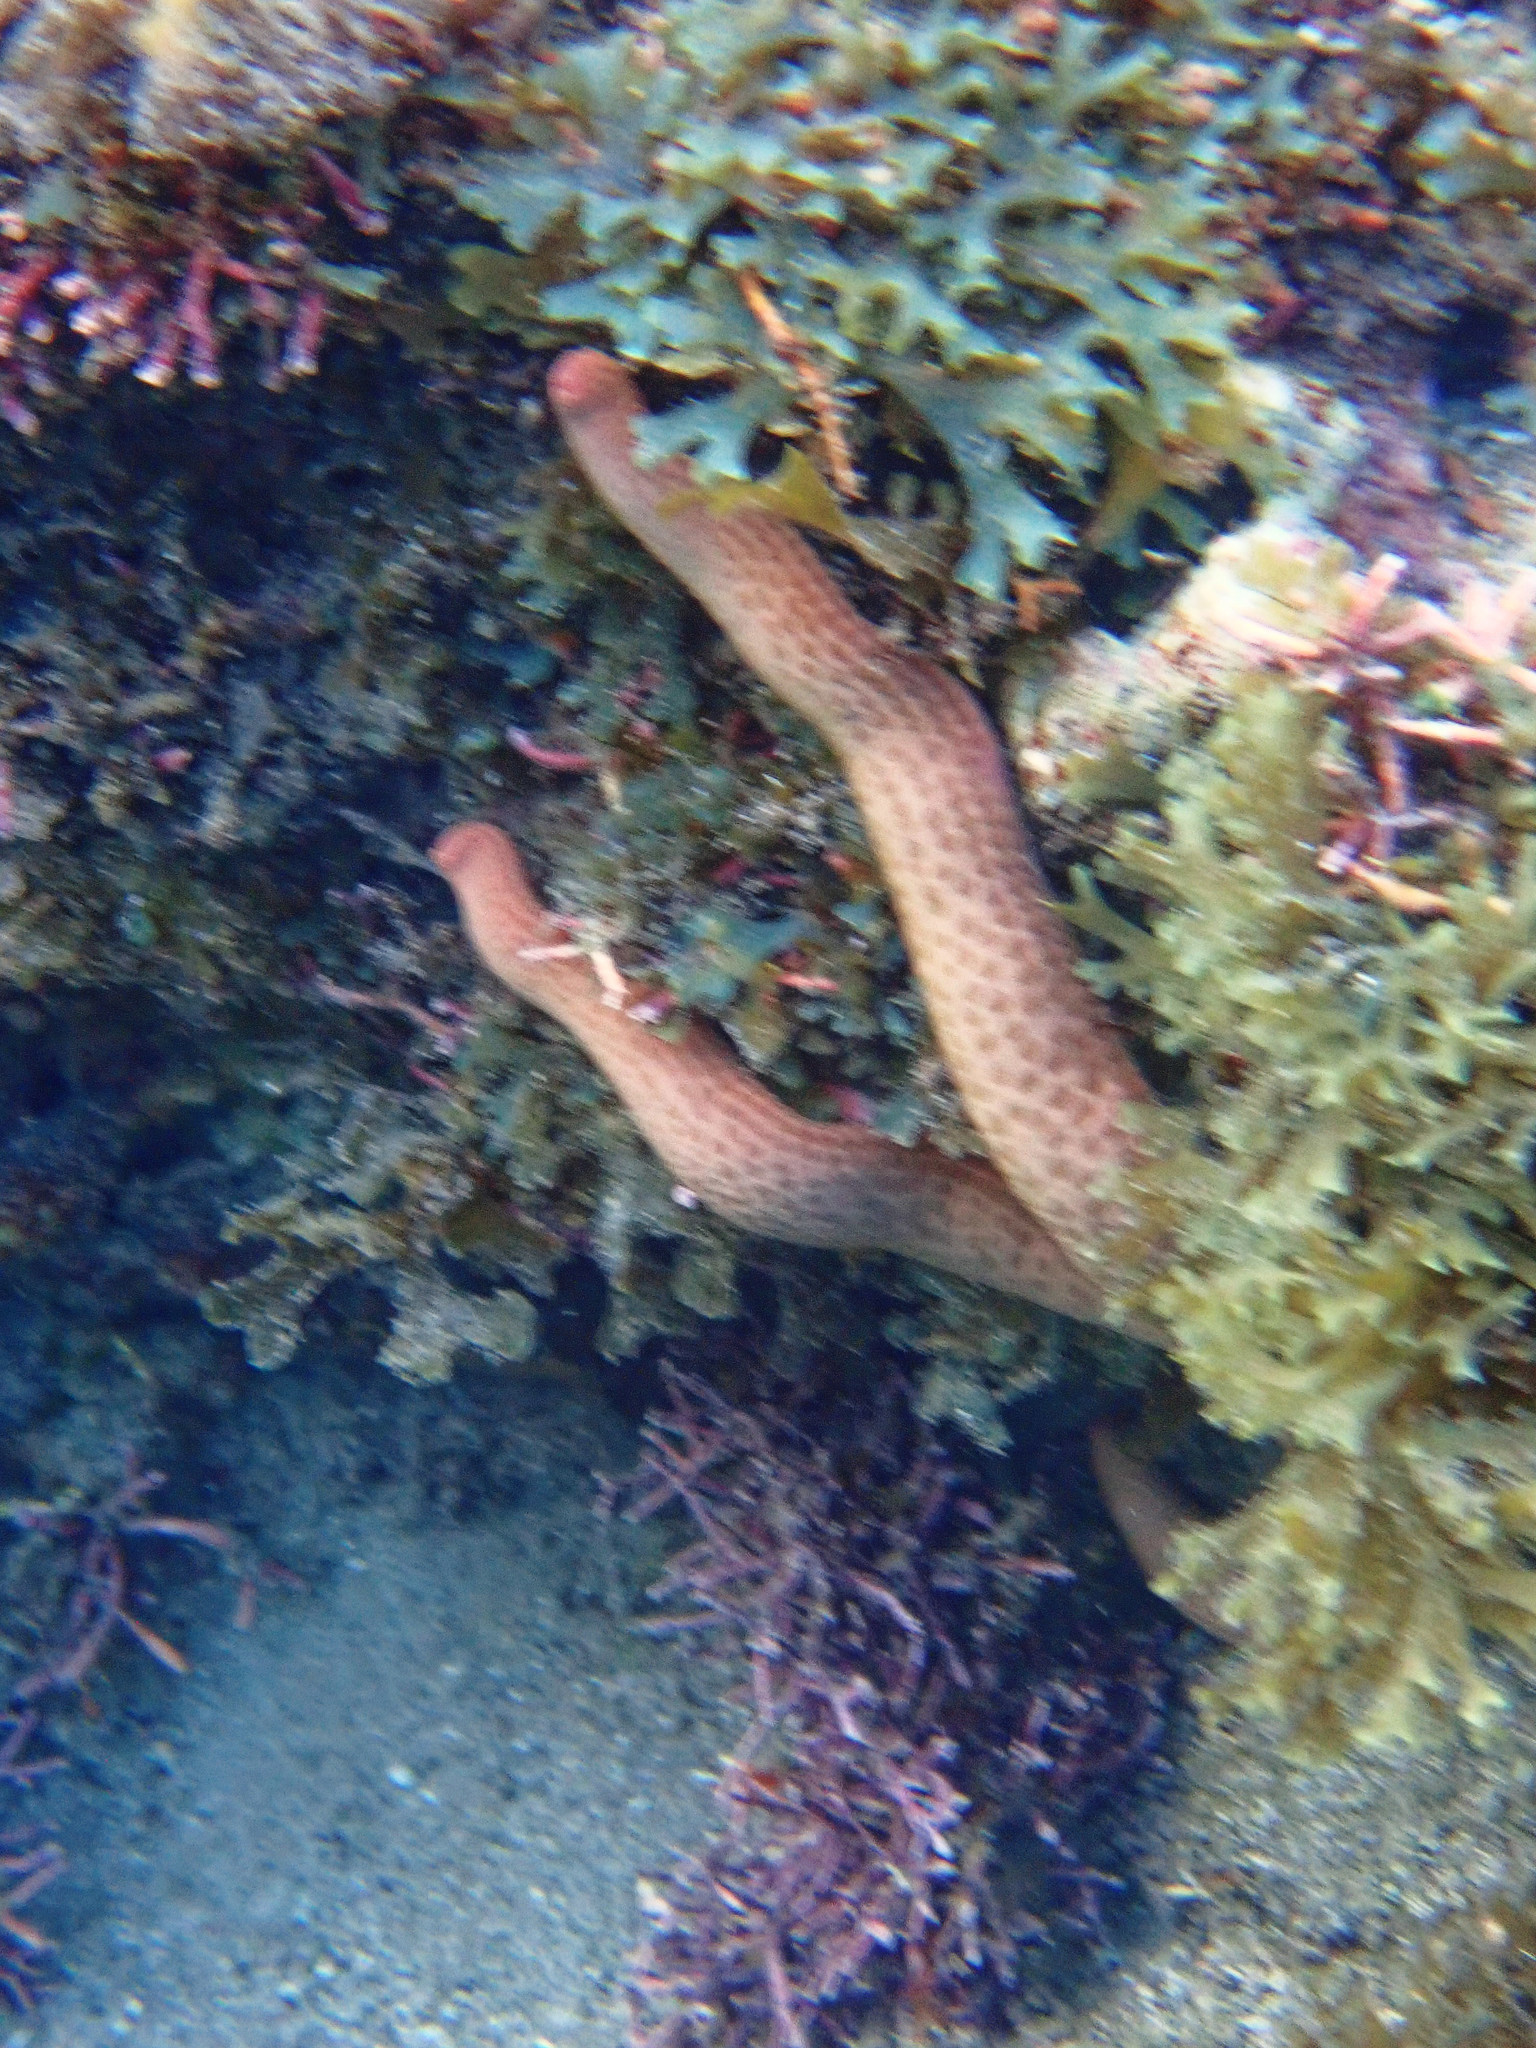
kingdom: Animalia
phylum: Echinodermata
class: Asteroidea
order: Valvatida
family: Ophidiasteridae
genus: Linckia
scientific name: Linckia guildingi
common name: Common comet star
